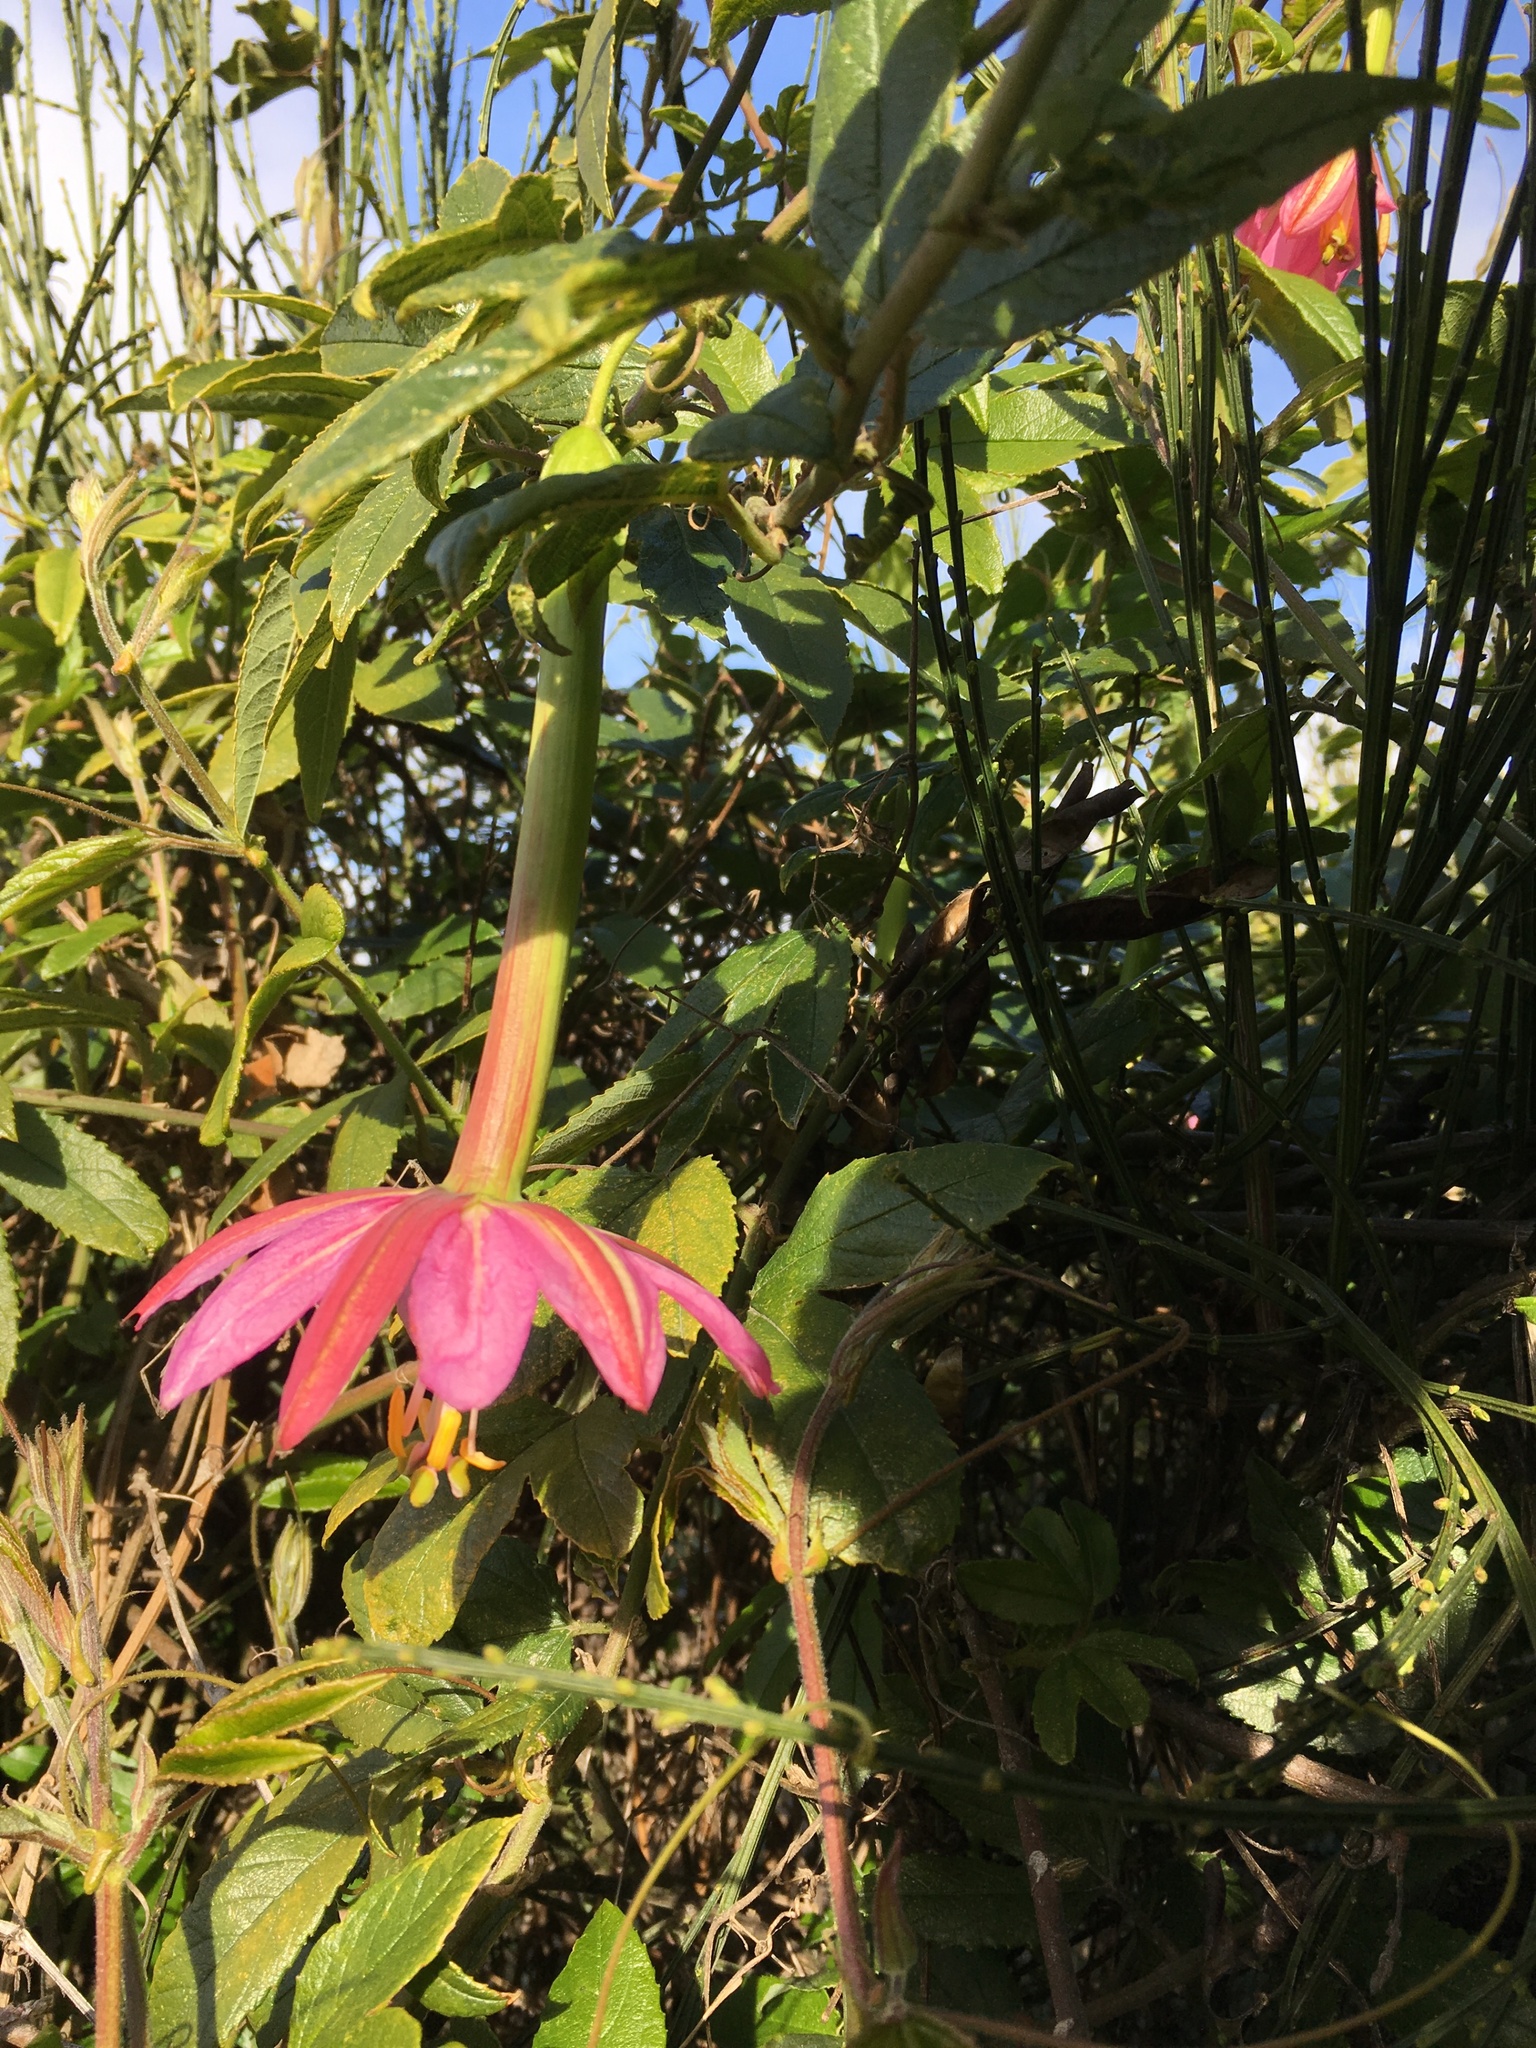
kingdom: Plantae
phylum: Tracheophyta
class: Magnoliopsida
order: Malpighiales
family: Passifloraceae
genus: Passiflora
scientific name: Passiflora tripartita
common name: Banana poka
